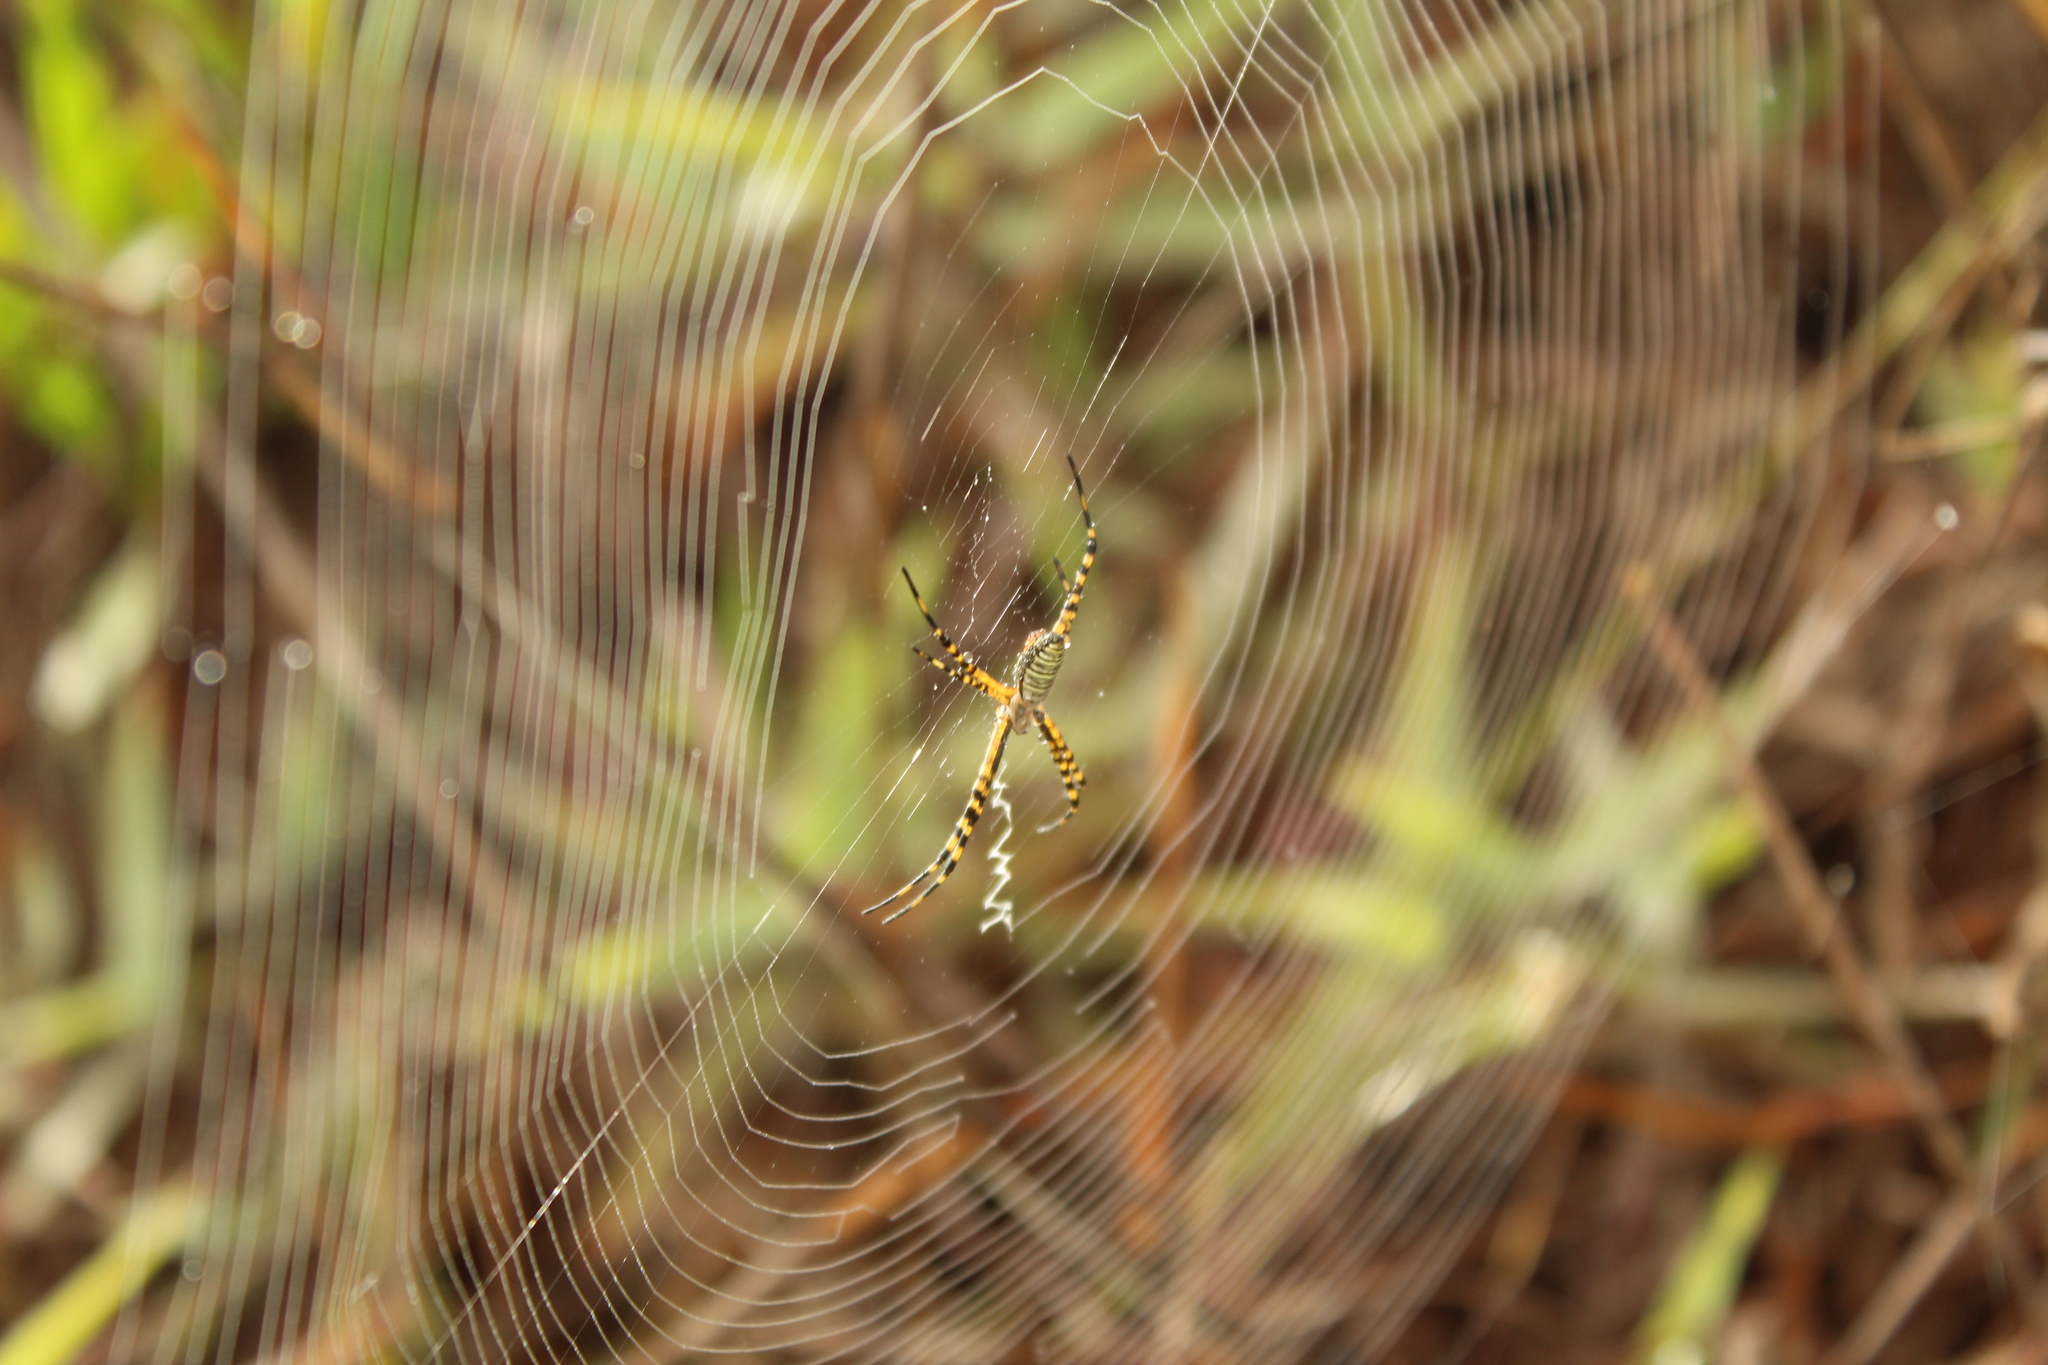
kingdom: Animalia
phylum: Arthropoda
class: Arachnida
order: Araneae
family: Araneidae
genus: Argiope
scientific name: Argiope trifasciata
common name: Banded garden spider
